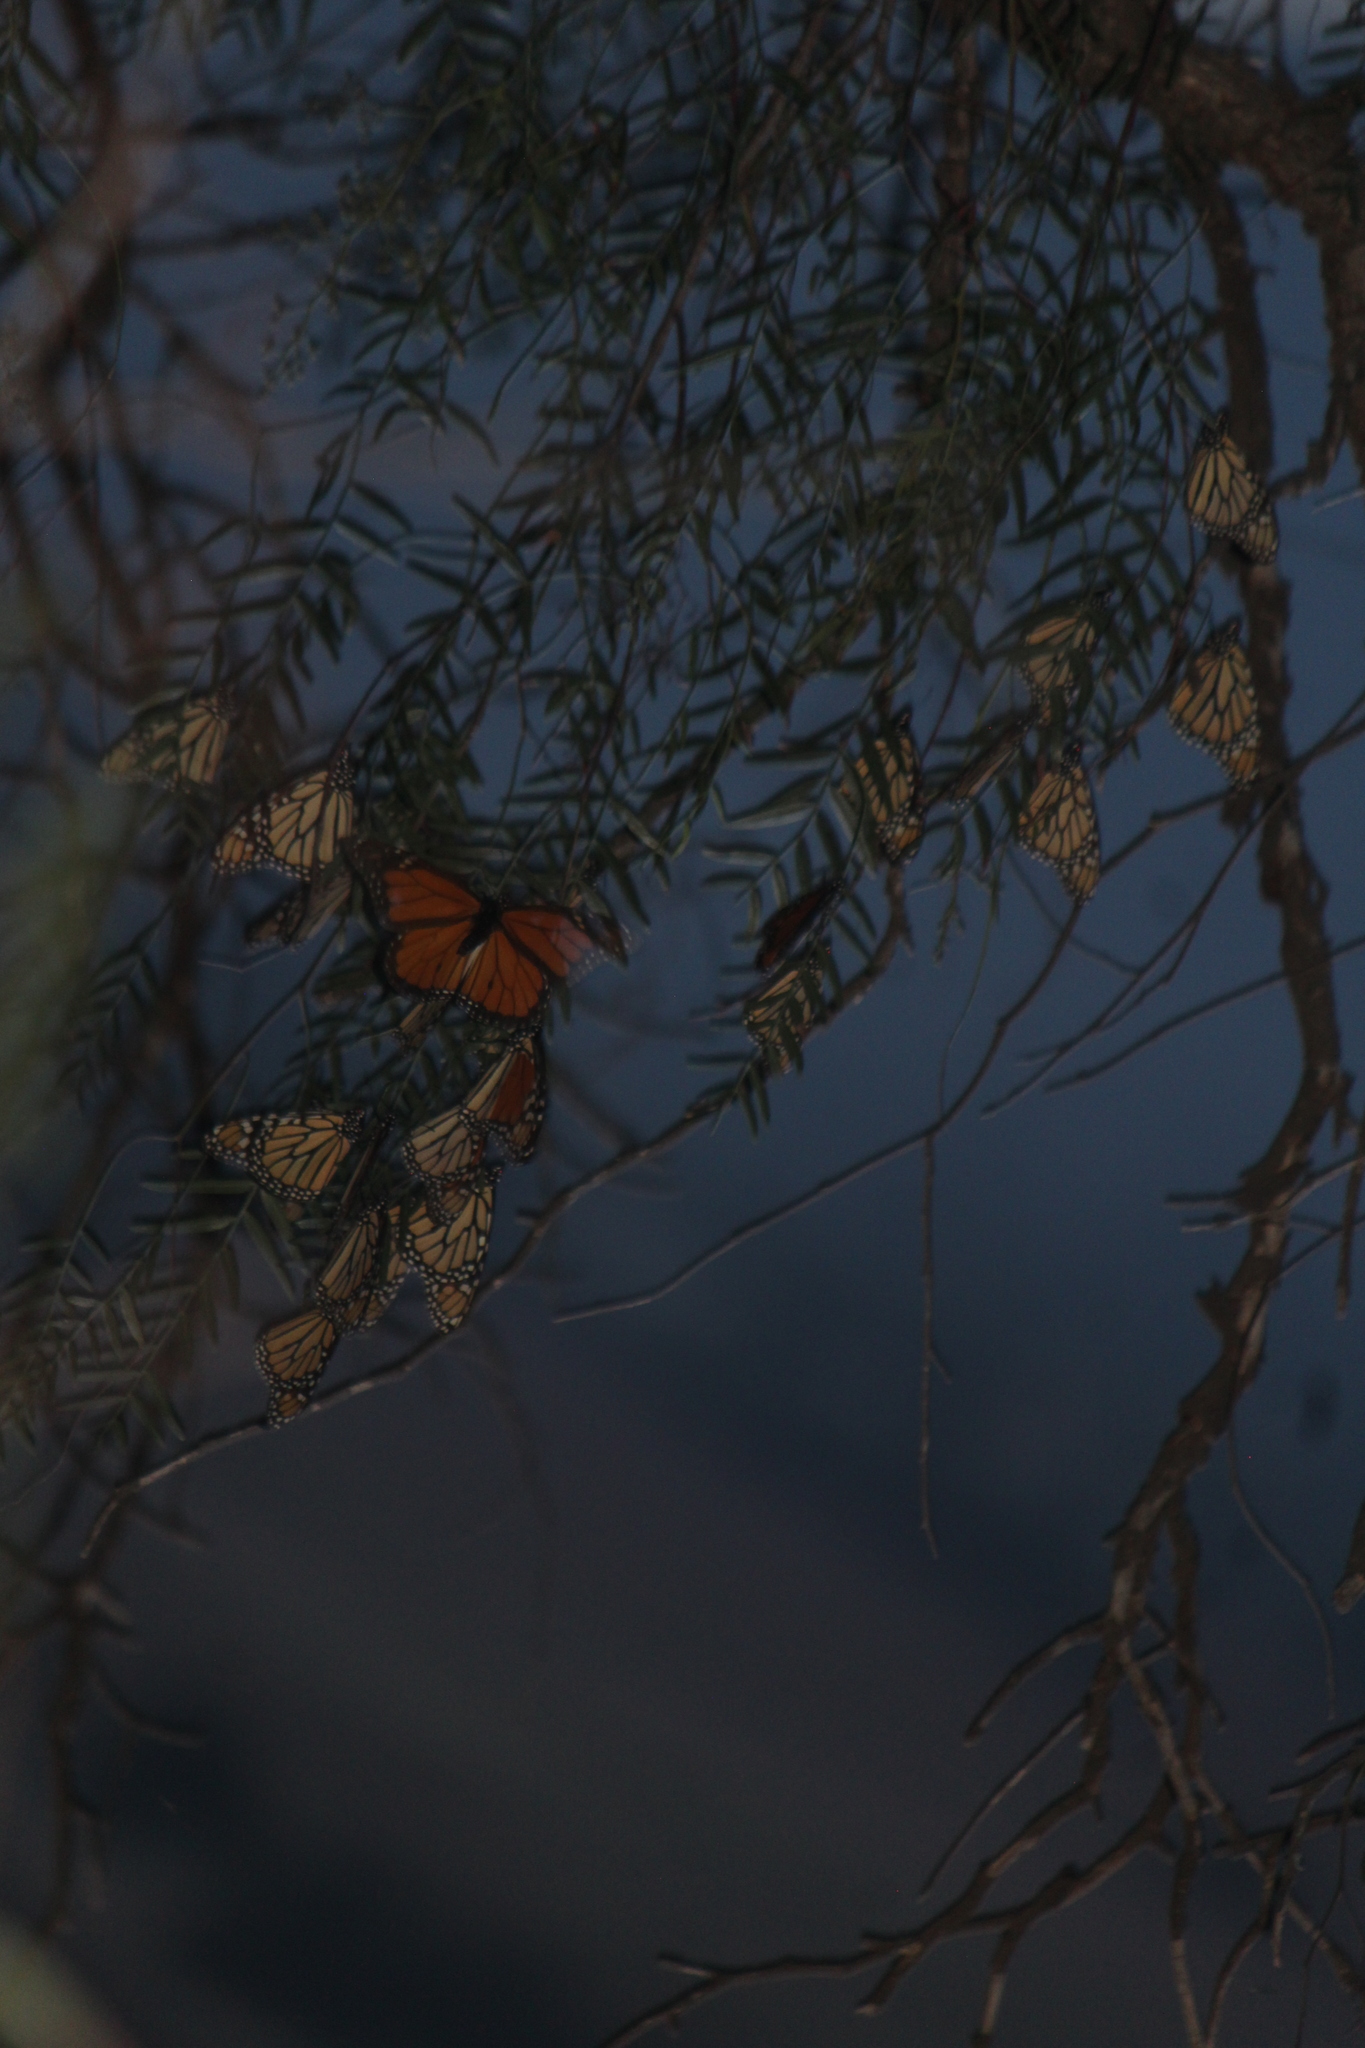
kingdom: Animalia
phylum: Arthropoda
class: Insecta
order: Lepidoptera
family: Nymphalidae
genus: Danaus
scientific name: Danaus plexippus
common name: Monarch
